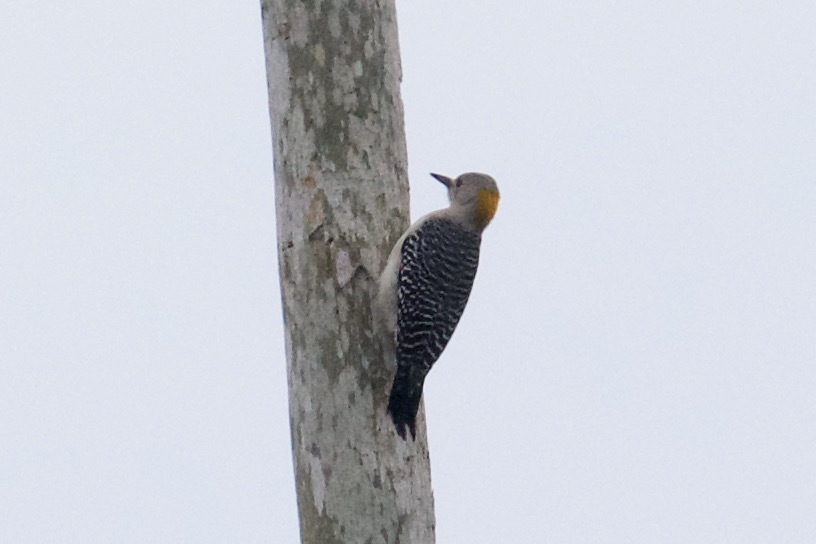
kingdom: Animalia
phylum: Chordata
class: Aves
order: Piciformes
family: Picidae
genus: Melanerpes
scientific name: Melanerpes aurifrons
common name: Golden-fronted woodpecker
